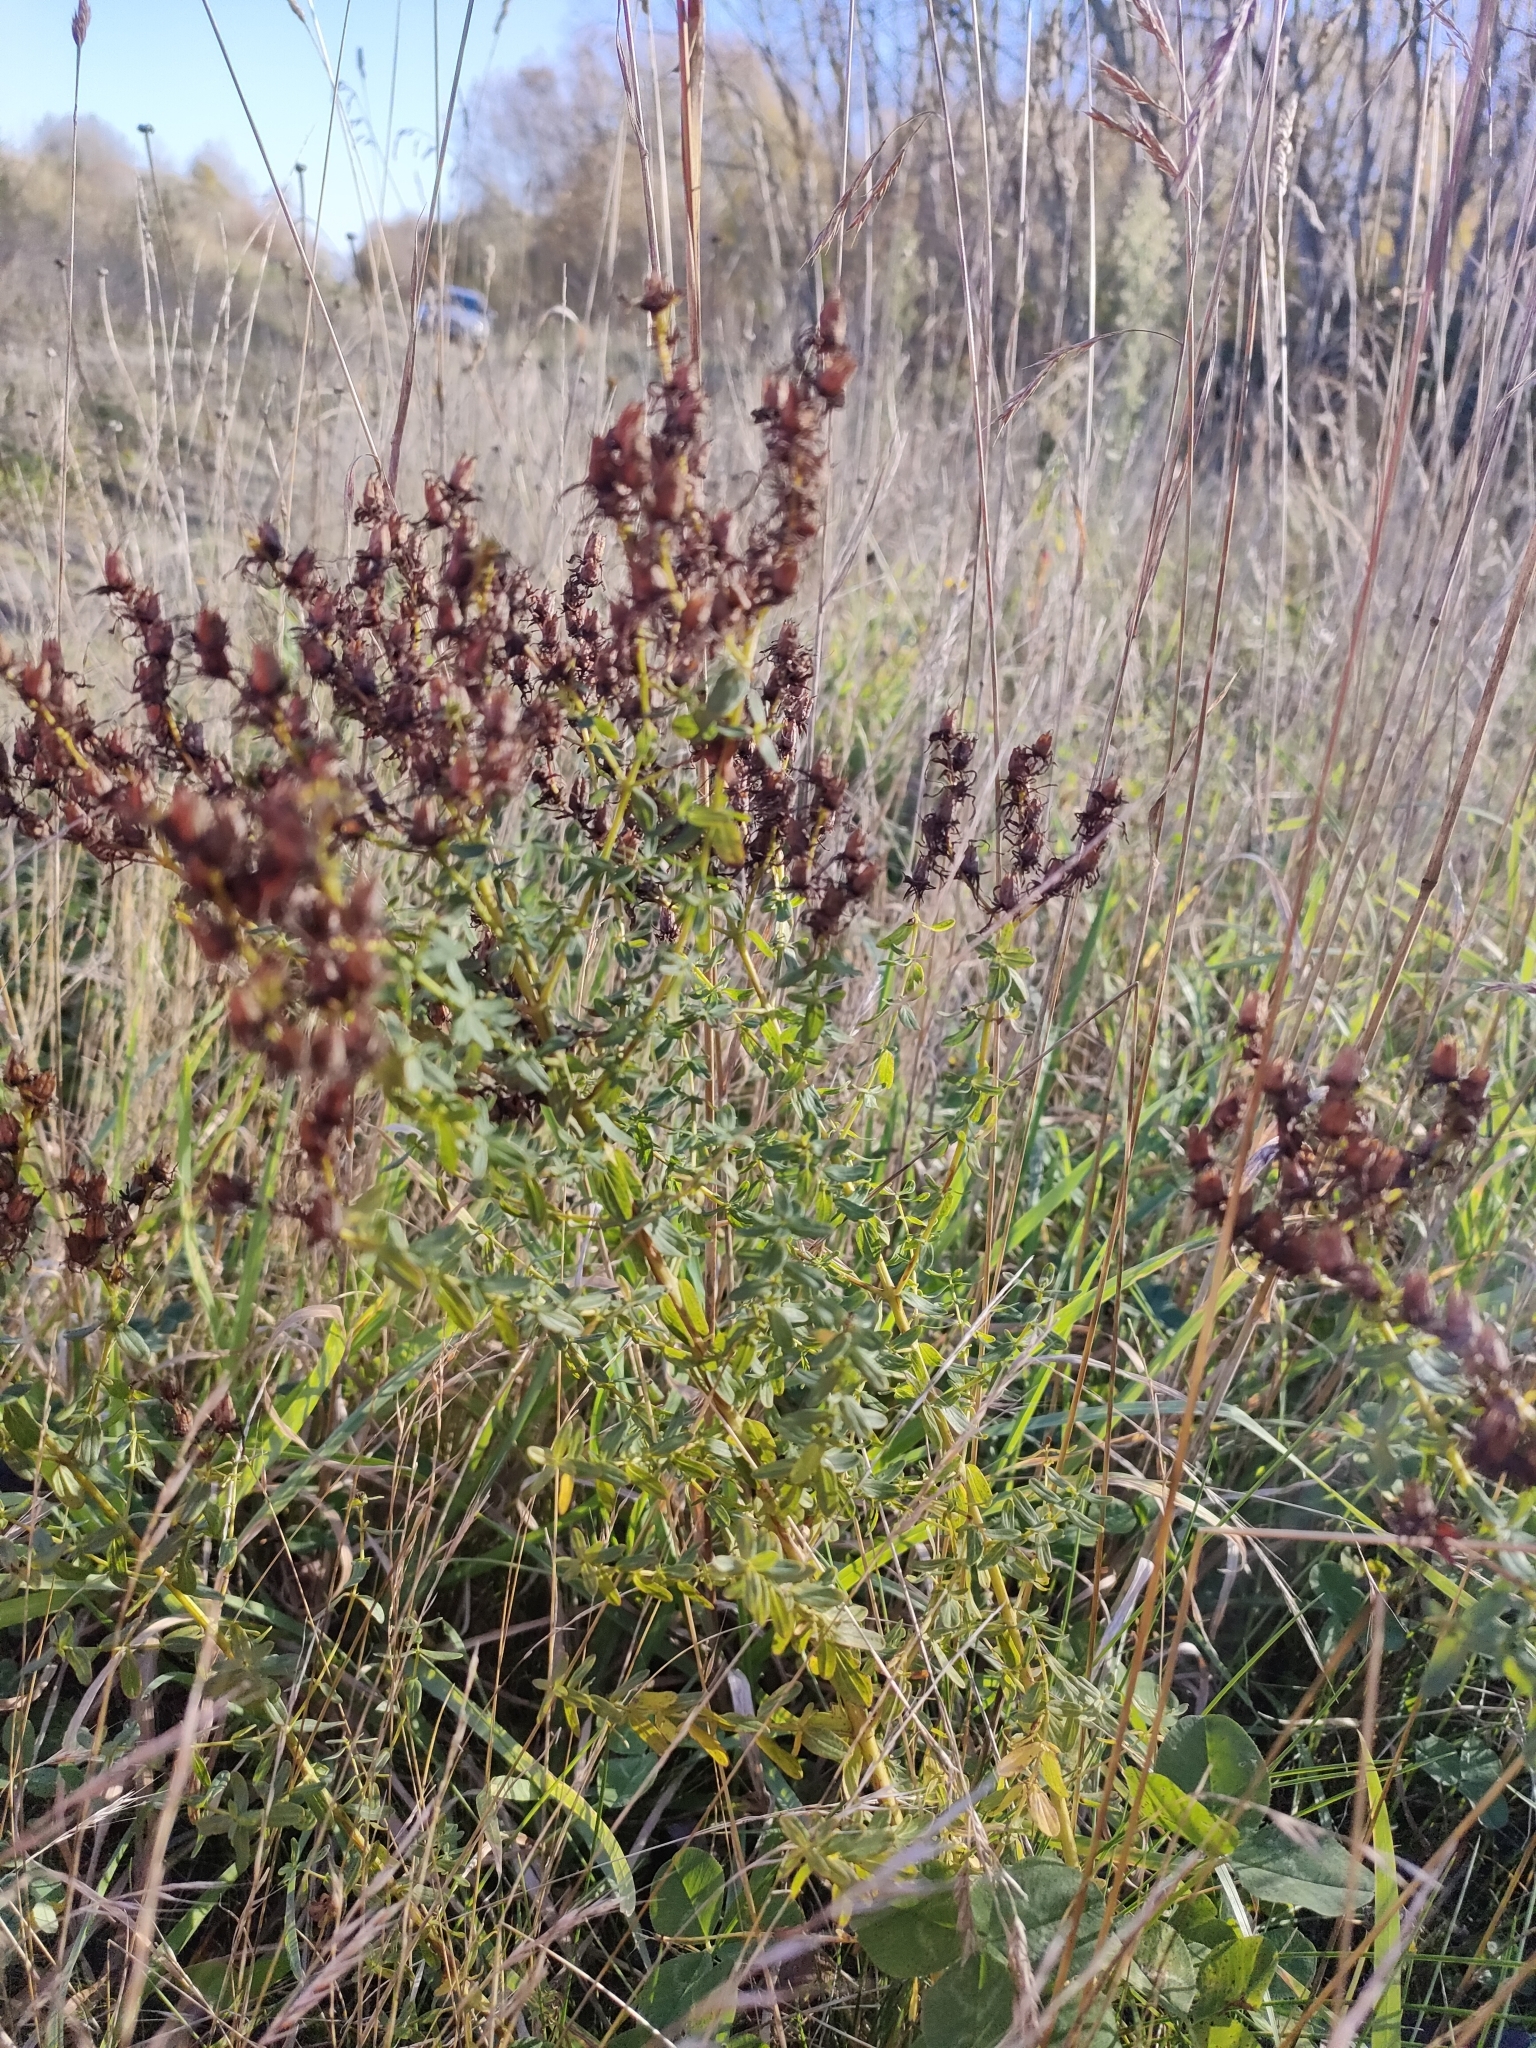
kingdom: Plantae
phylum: Tracheophyta
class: Magnoliopsida
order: Malpighiales
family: Hypericaceae
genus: Hypericum
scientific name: Hypericum perforatum
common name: Common st. johnswort
